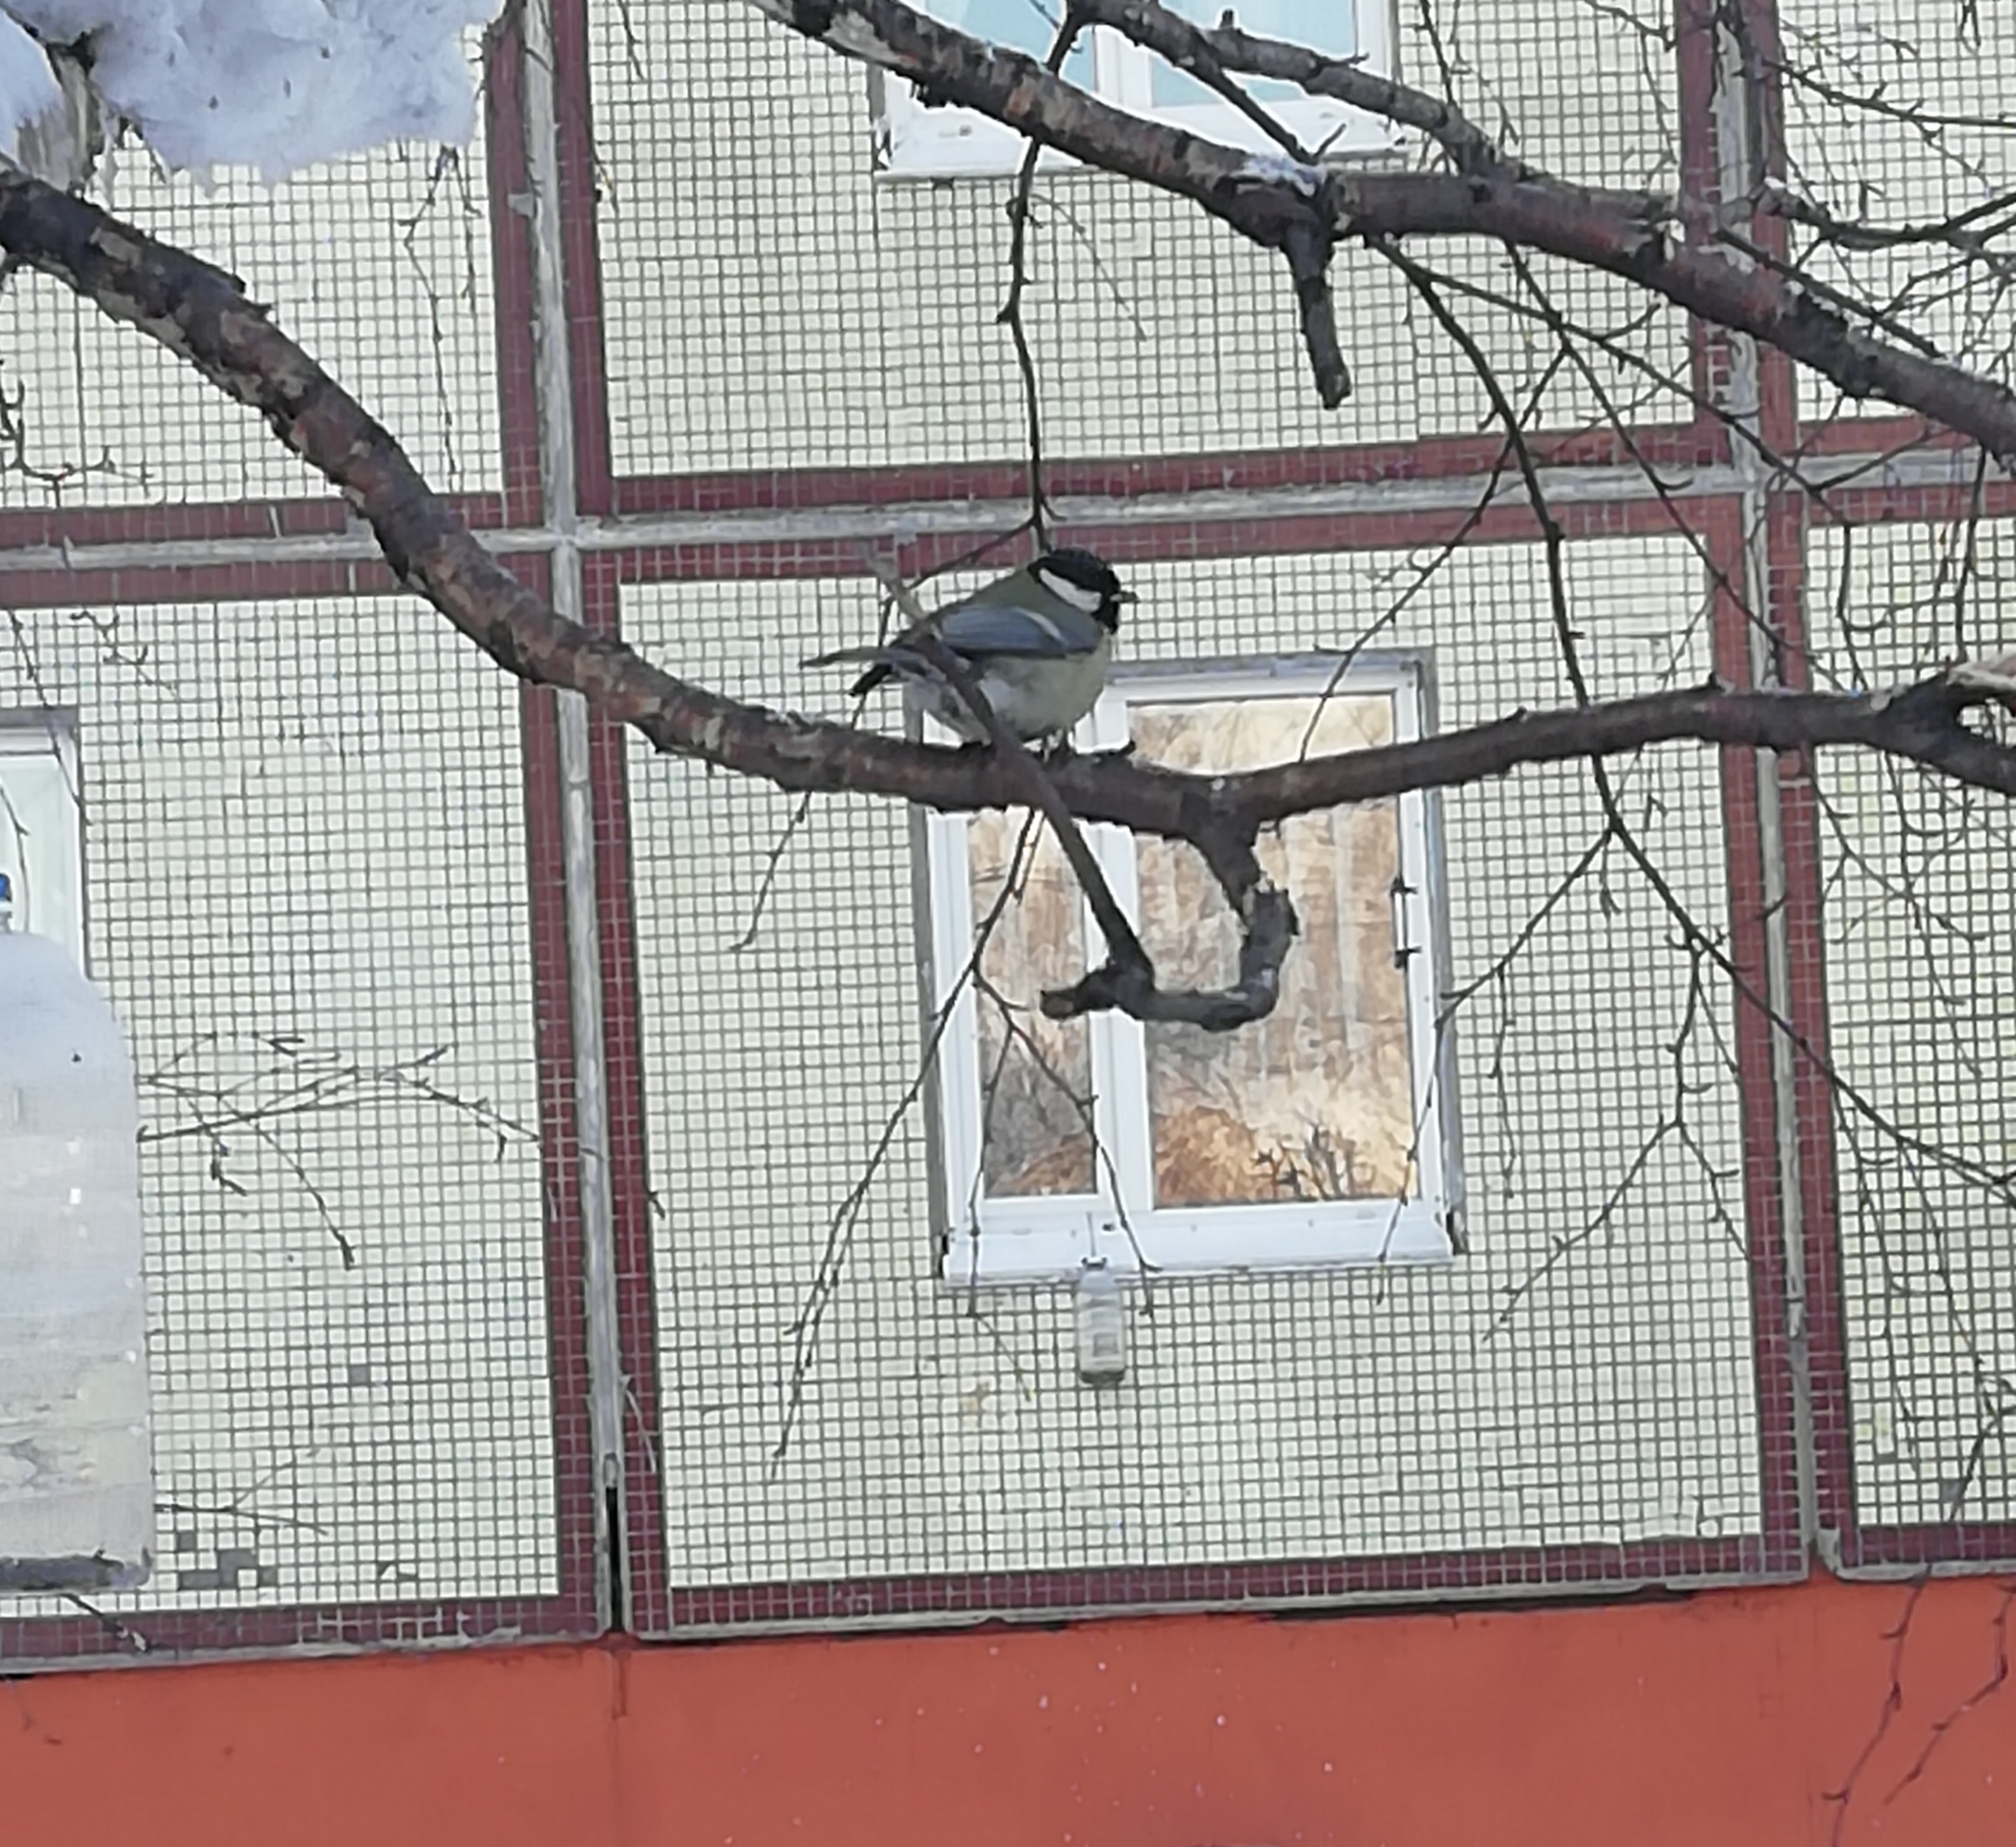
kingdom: Animalia
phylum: Chordata
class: Aves
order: Passeriformes
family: Paridae
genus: Parus
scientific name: Parus major
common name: Great tit
